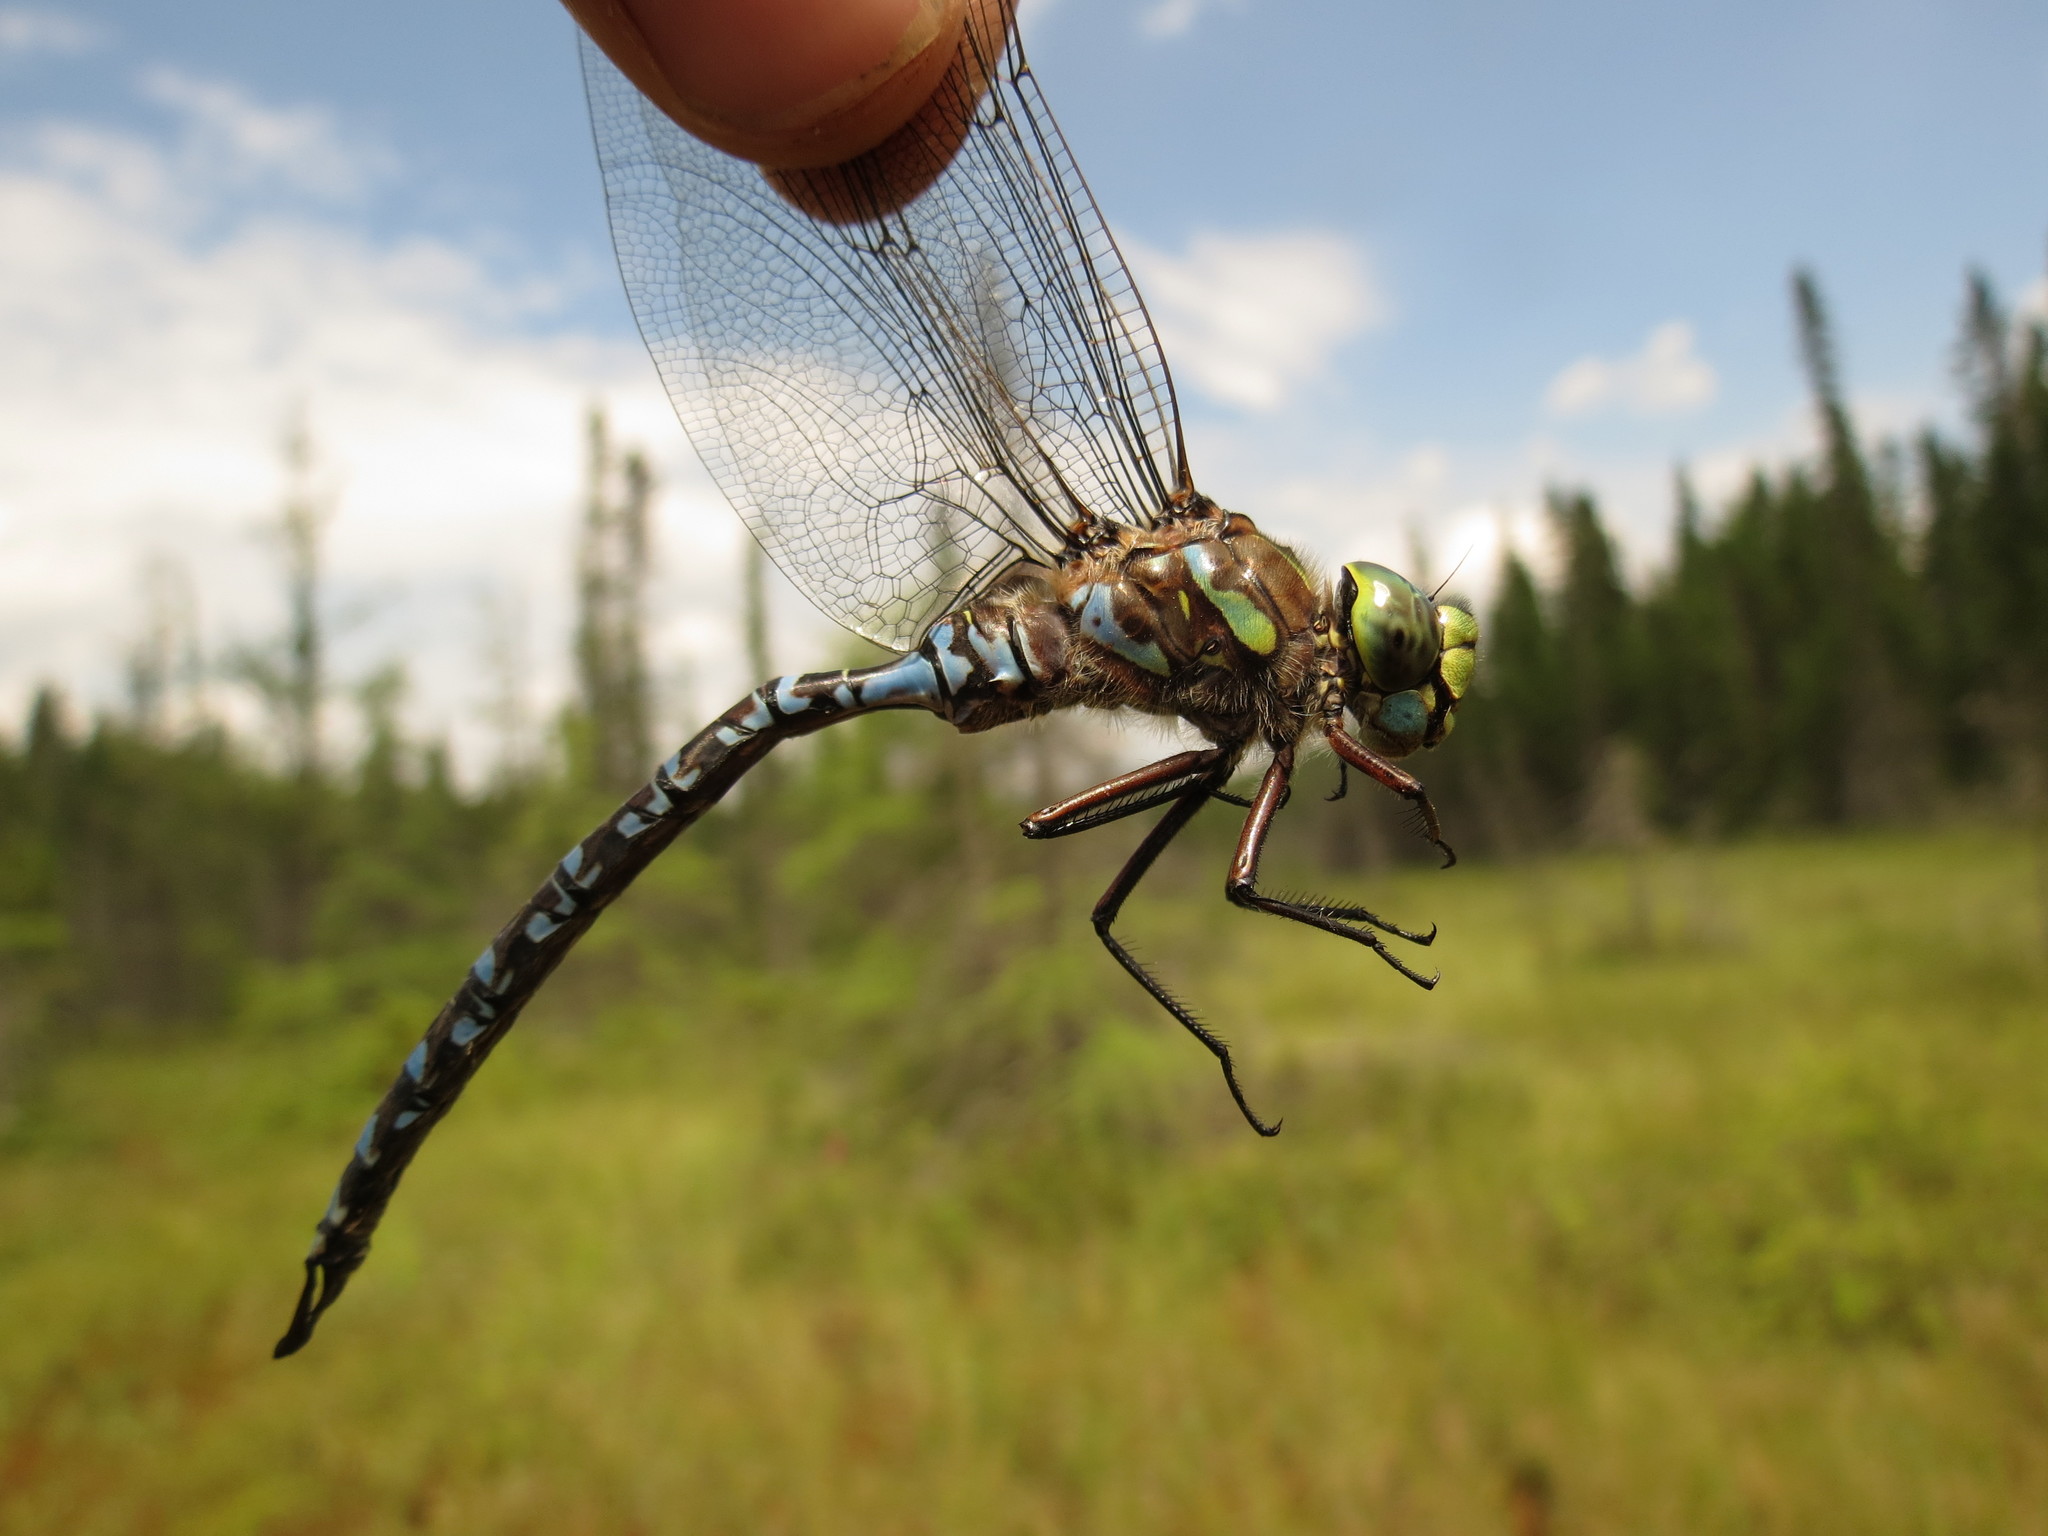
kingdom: Animalia
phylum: Arthropoda
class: Insecta
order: Odonata
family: Aeshnidae
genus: Aeshna
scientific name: Aeshna eremita
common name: Lake darner
